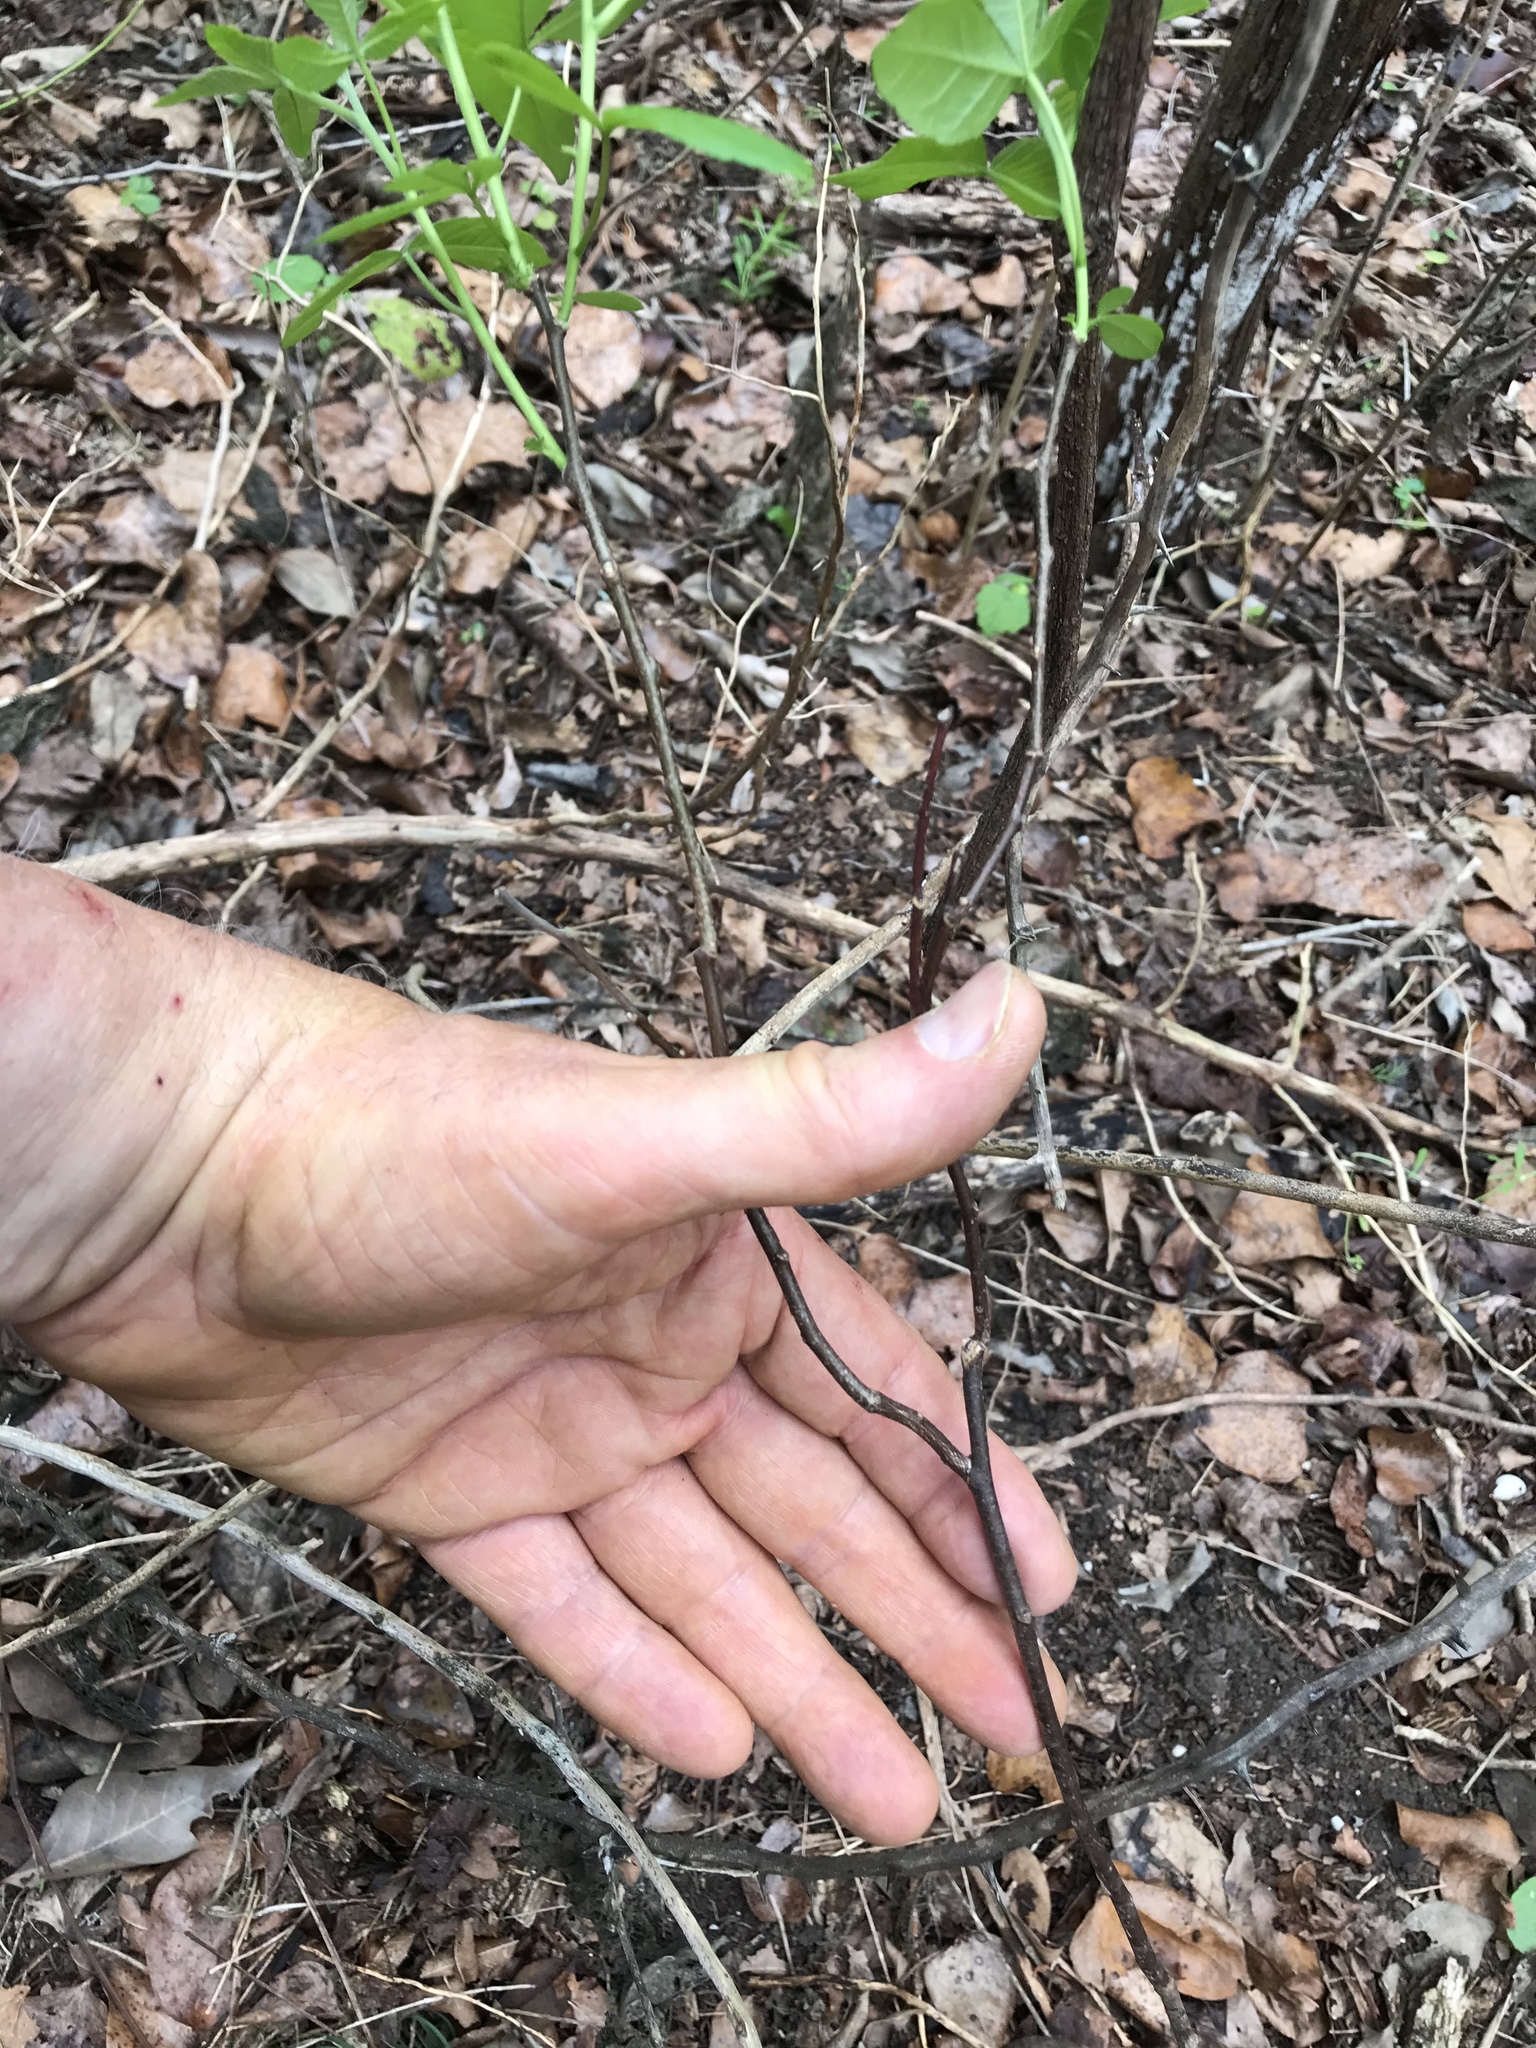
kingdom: Plantae
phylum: Tracheophyta
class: Magnoliopsida
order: Sapindales
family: Rutaceae
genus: Ptelea
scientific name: Ptelea trifoliata
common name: Common hop-tree
